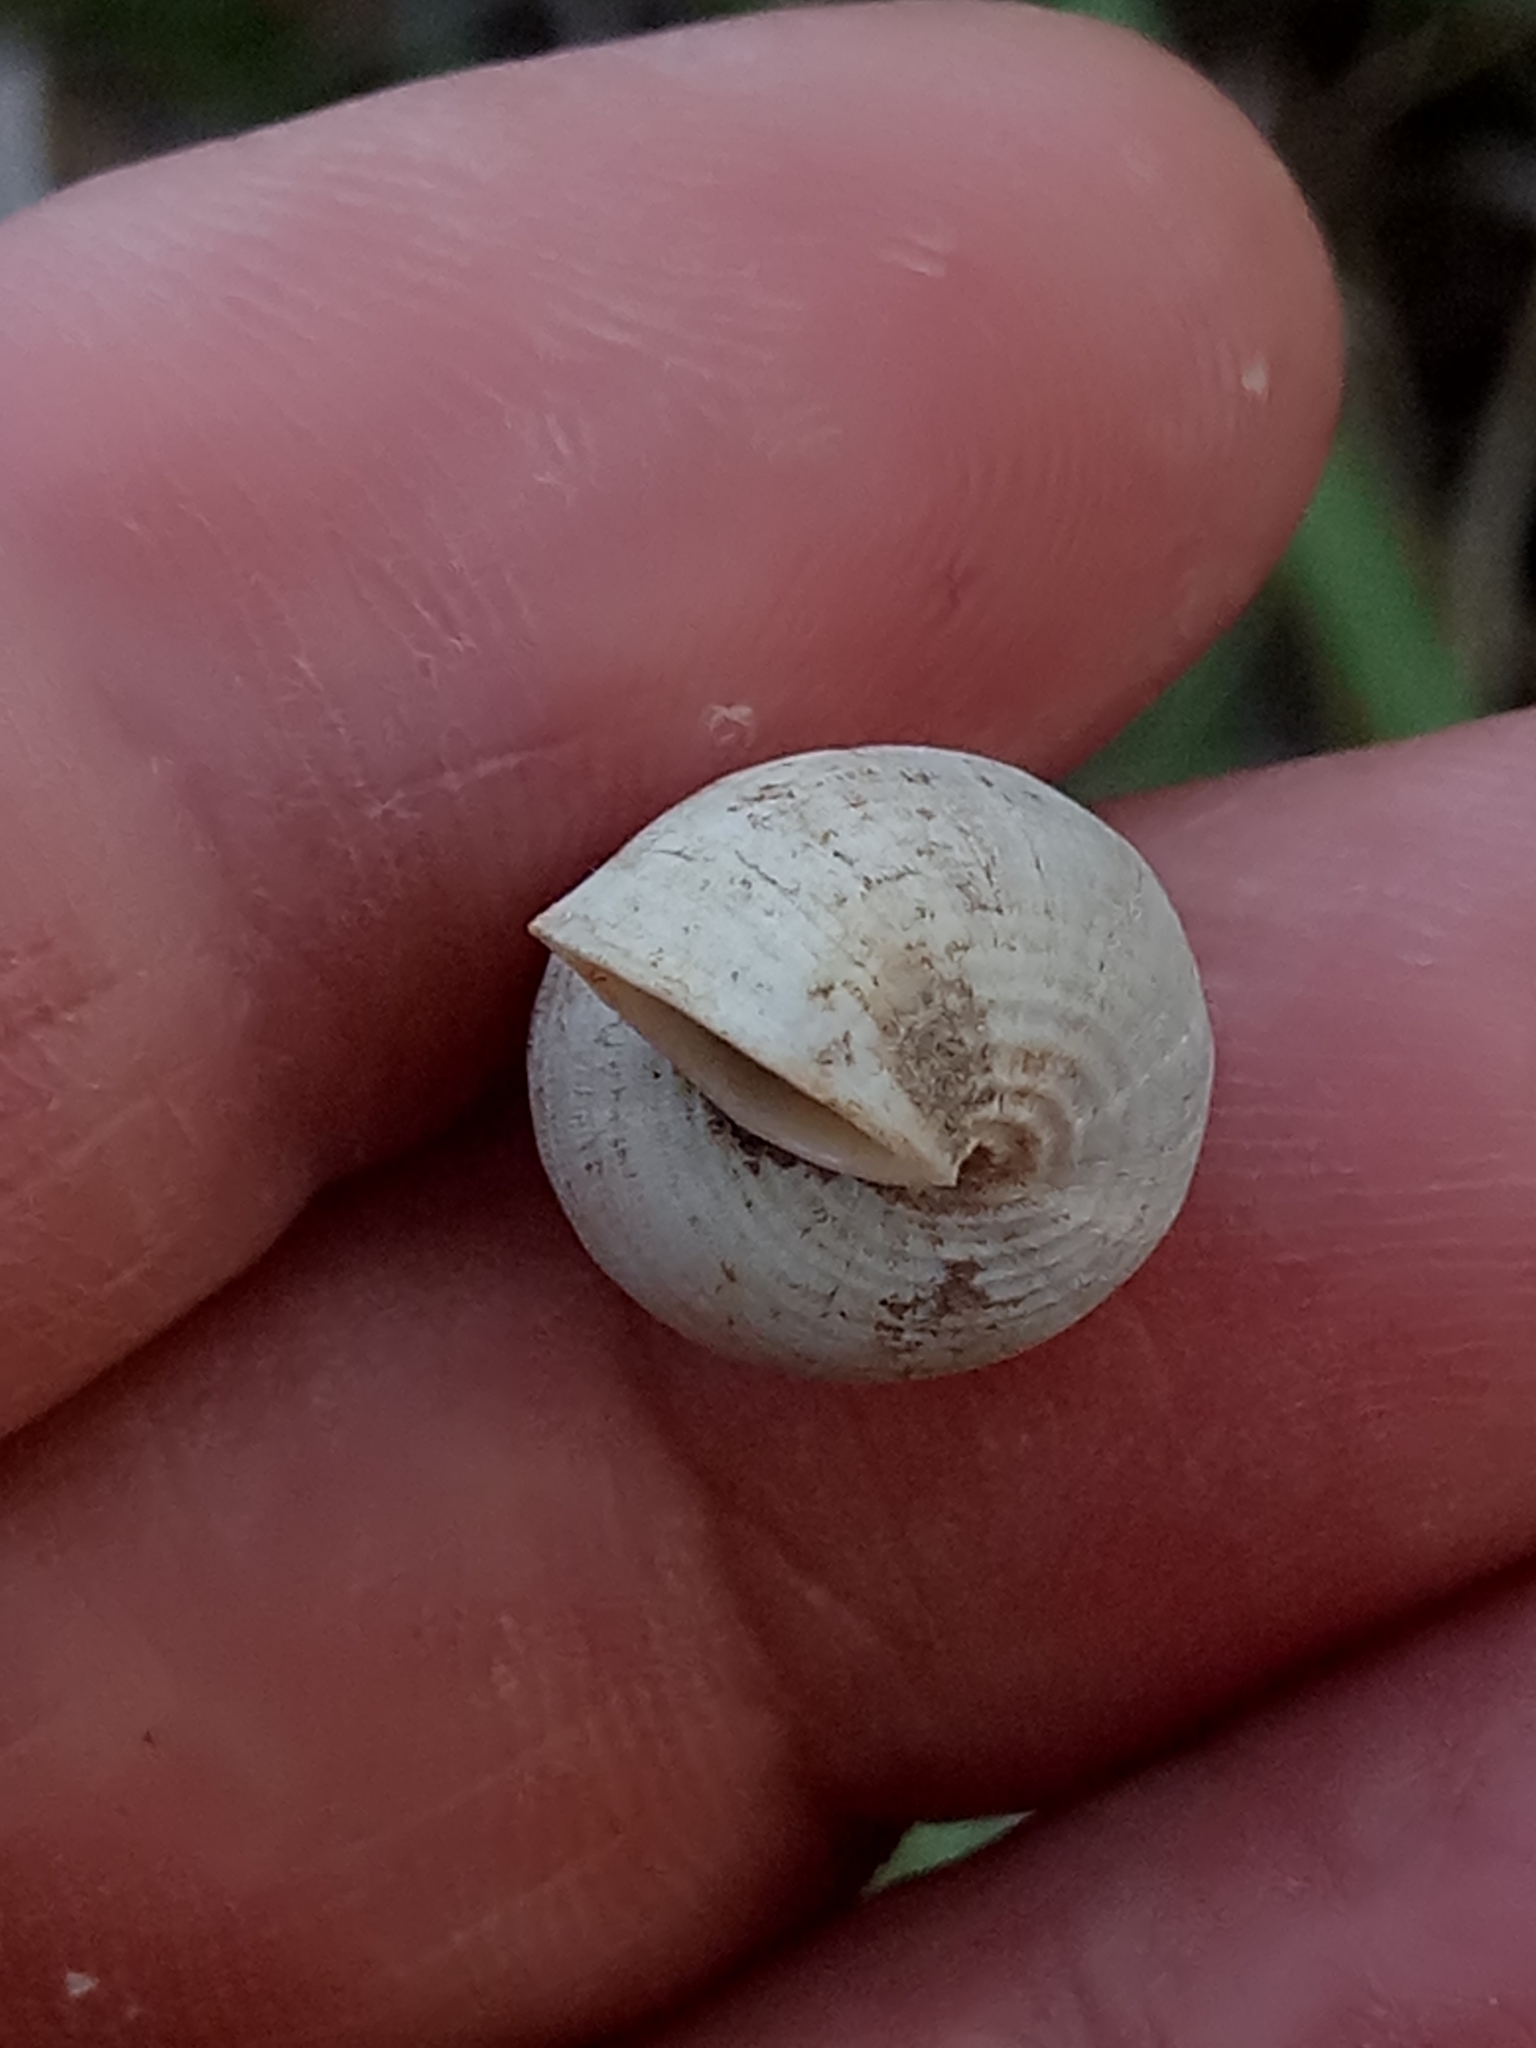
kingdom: Animalia
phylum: Mollusca
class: Gastropoda
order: Littorinimorpha
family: Pomatiidae
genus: Tudorella
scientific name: Tudorella sulcata
